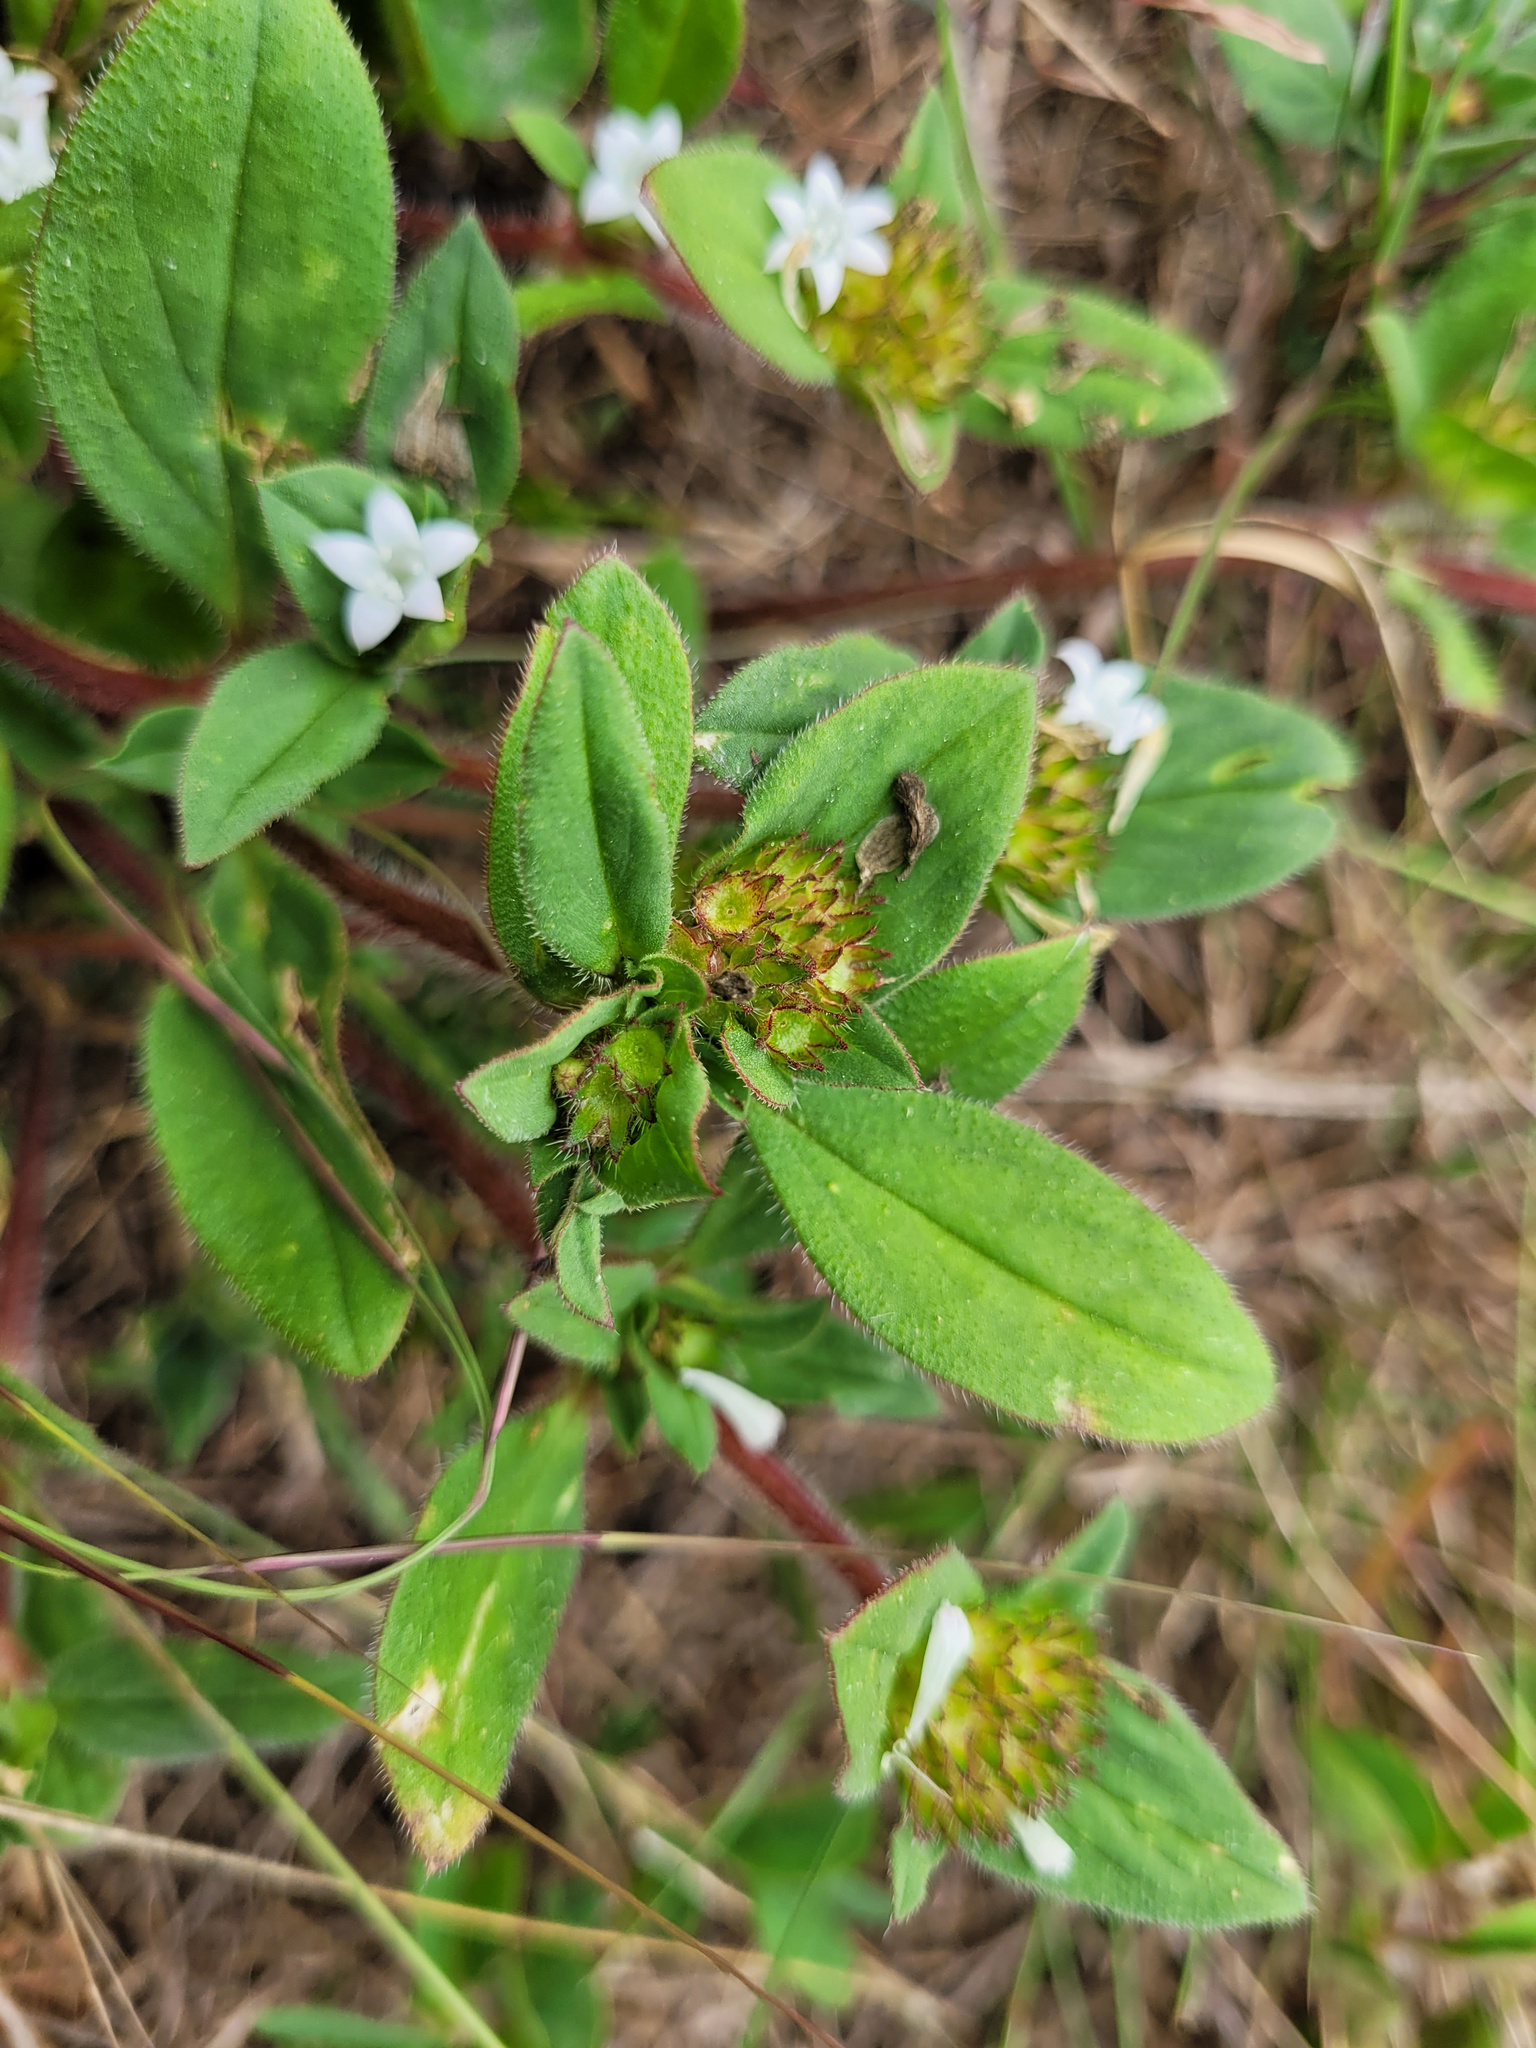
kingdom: Plantae
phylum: Tracheophyta
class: Magnoliopsida
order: Gentianales
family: Rubiaceae
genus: Richardia
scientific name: Richardia brasiliensis
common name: Tropical mexican clover
